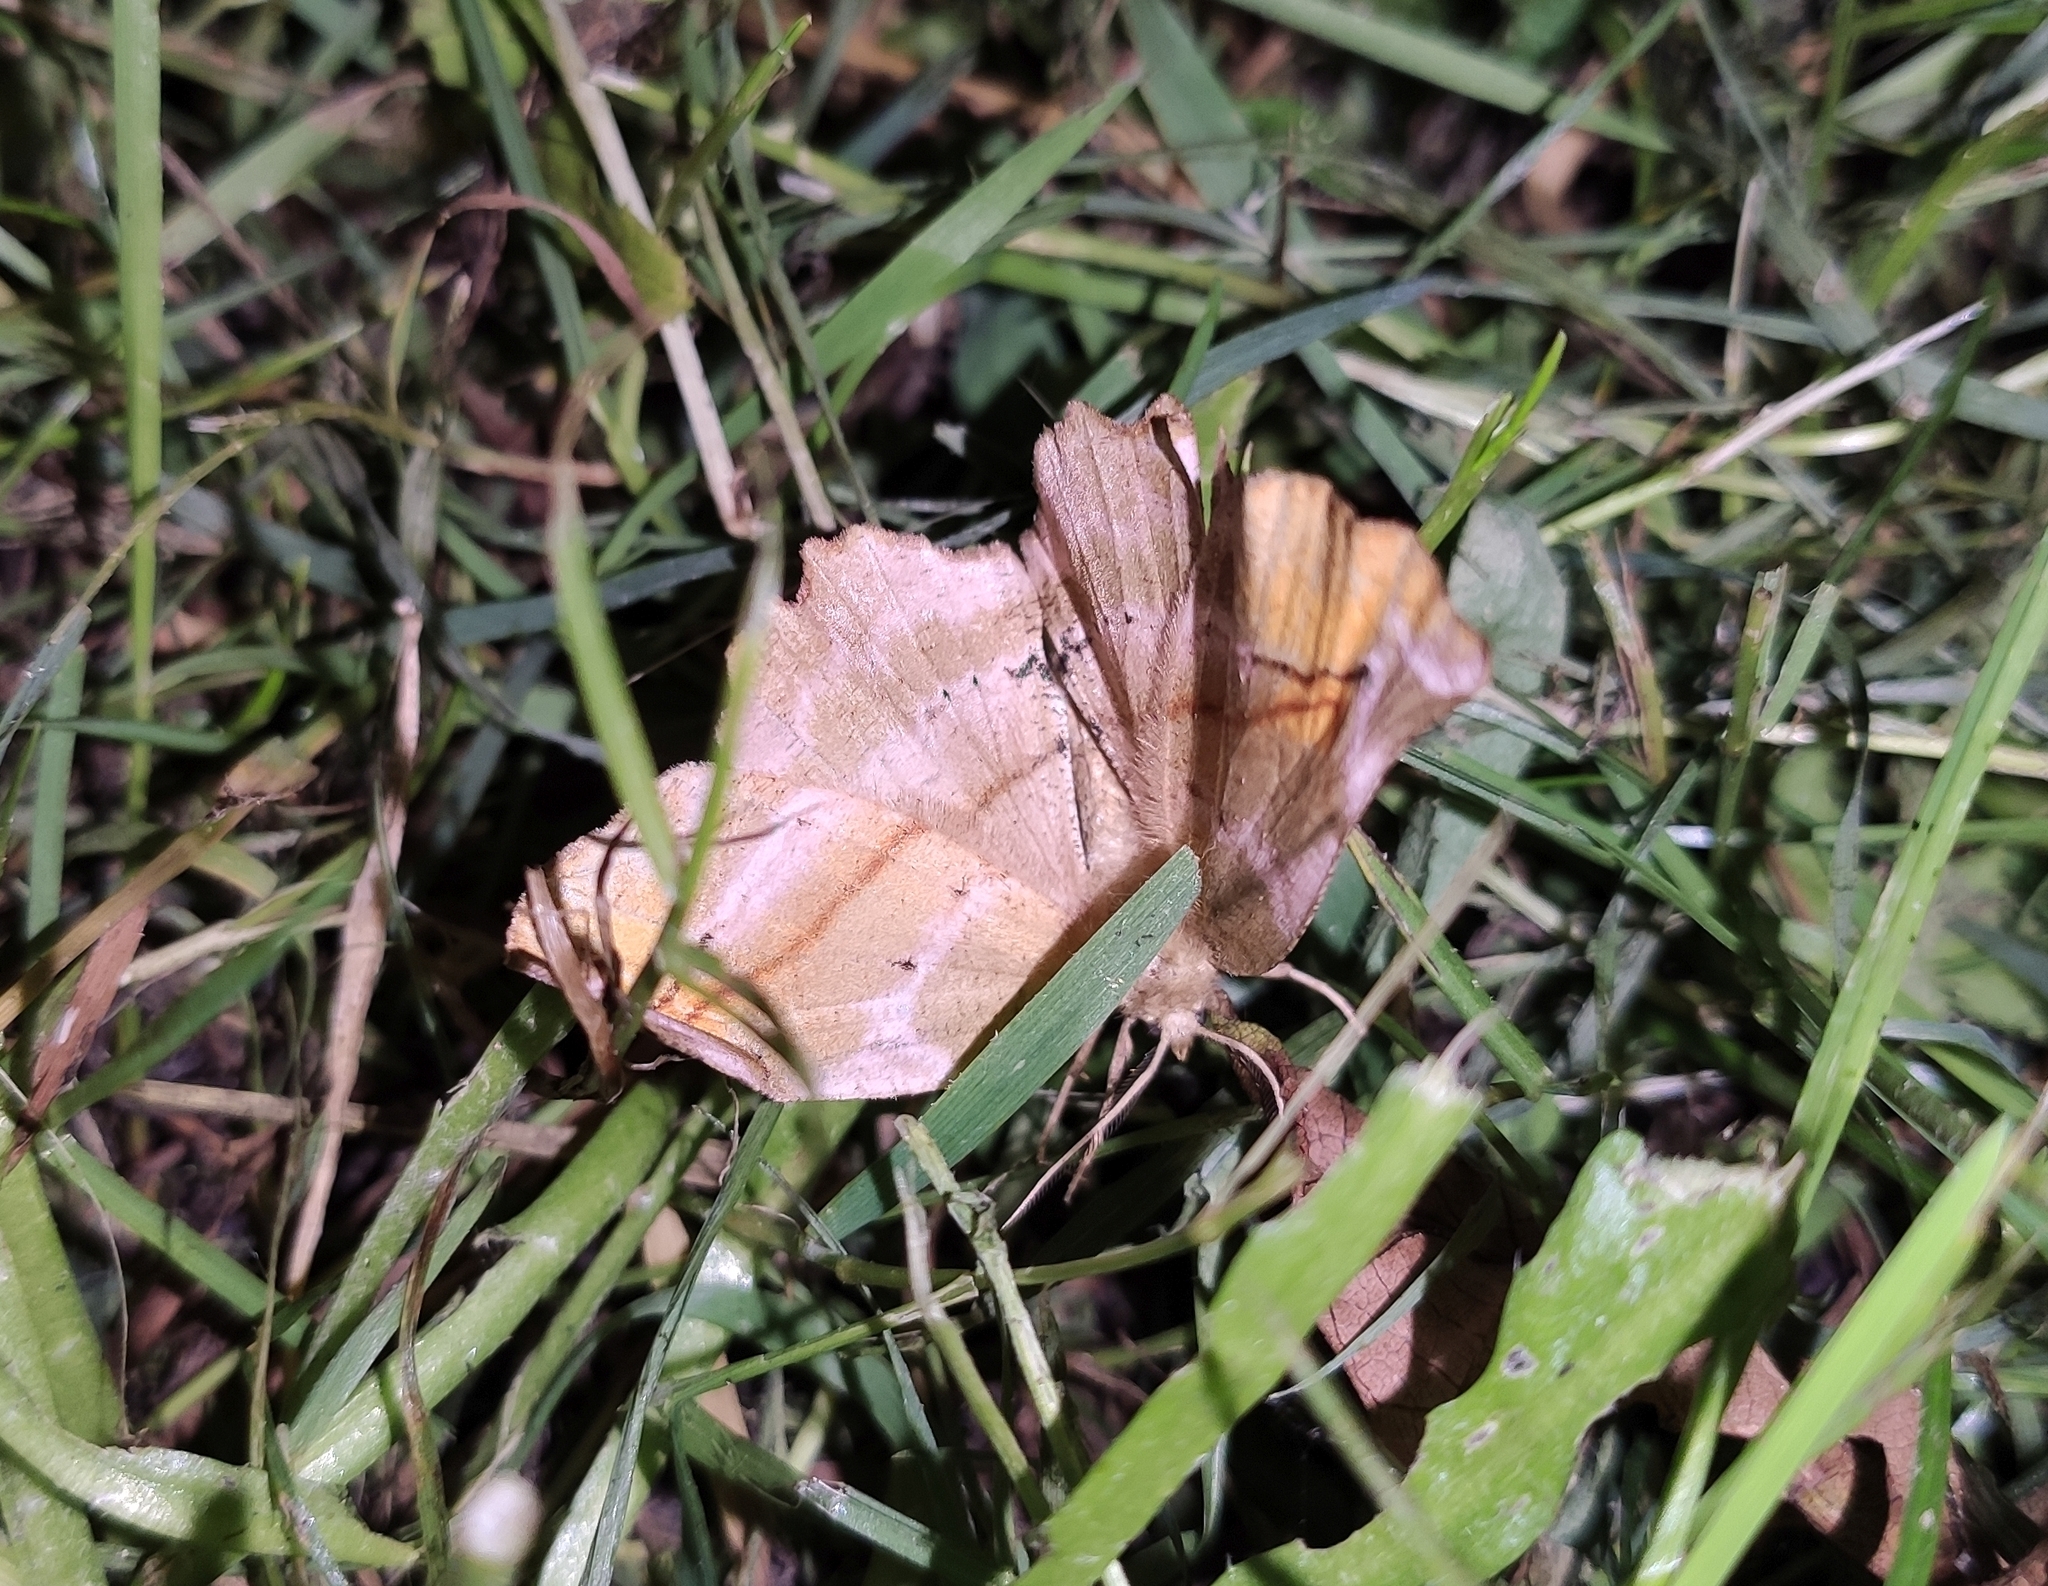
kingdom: Animalia
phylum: Arthropoda
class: Insecta
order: Lepidoptera
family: Geometridae
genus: Apeira
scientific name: Apeira syringaria
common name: Lilac beauty
